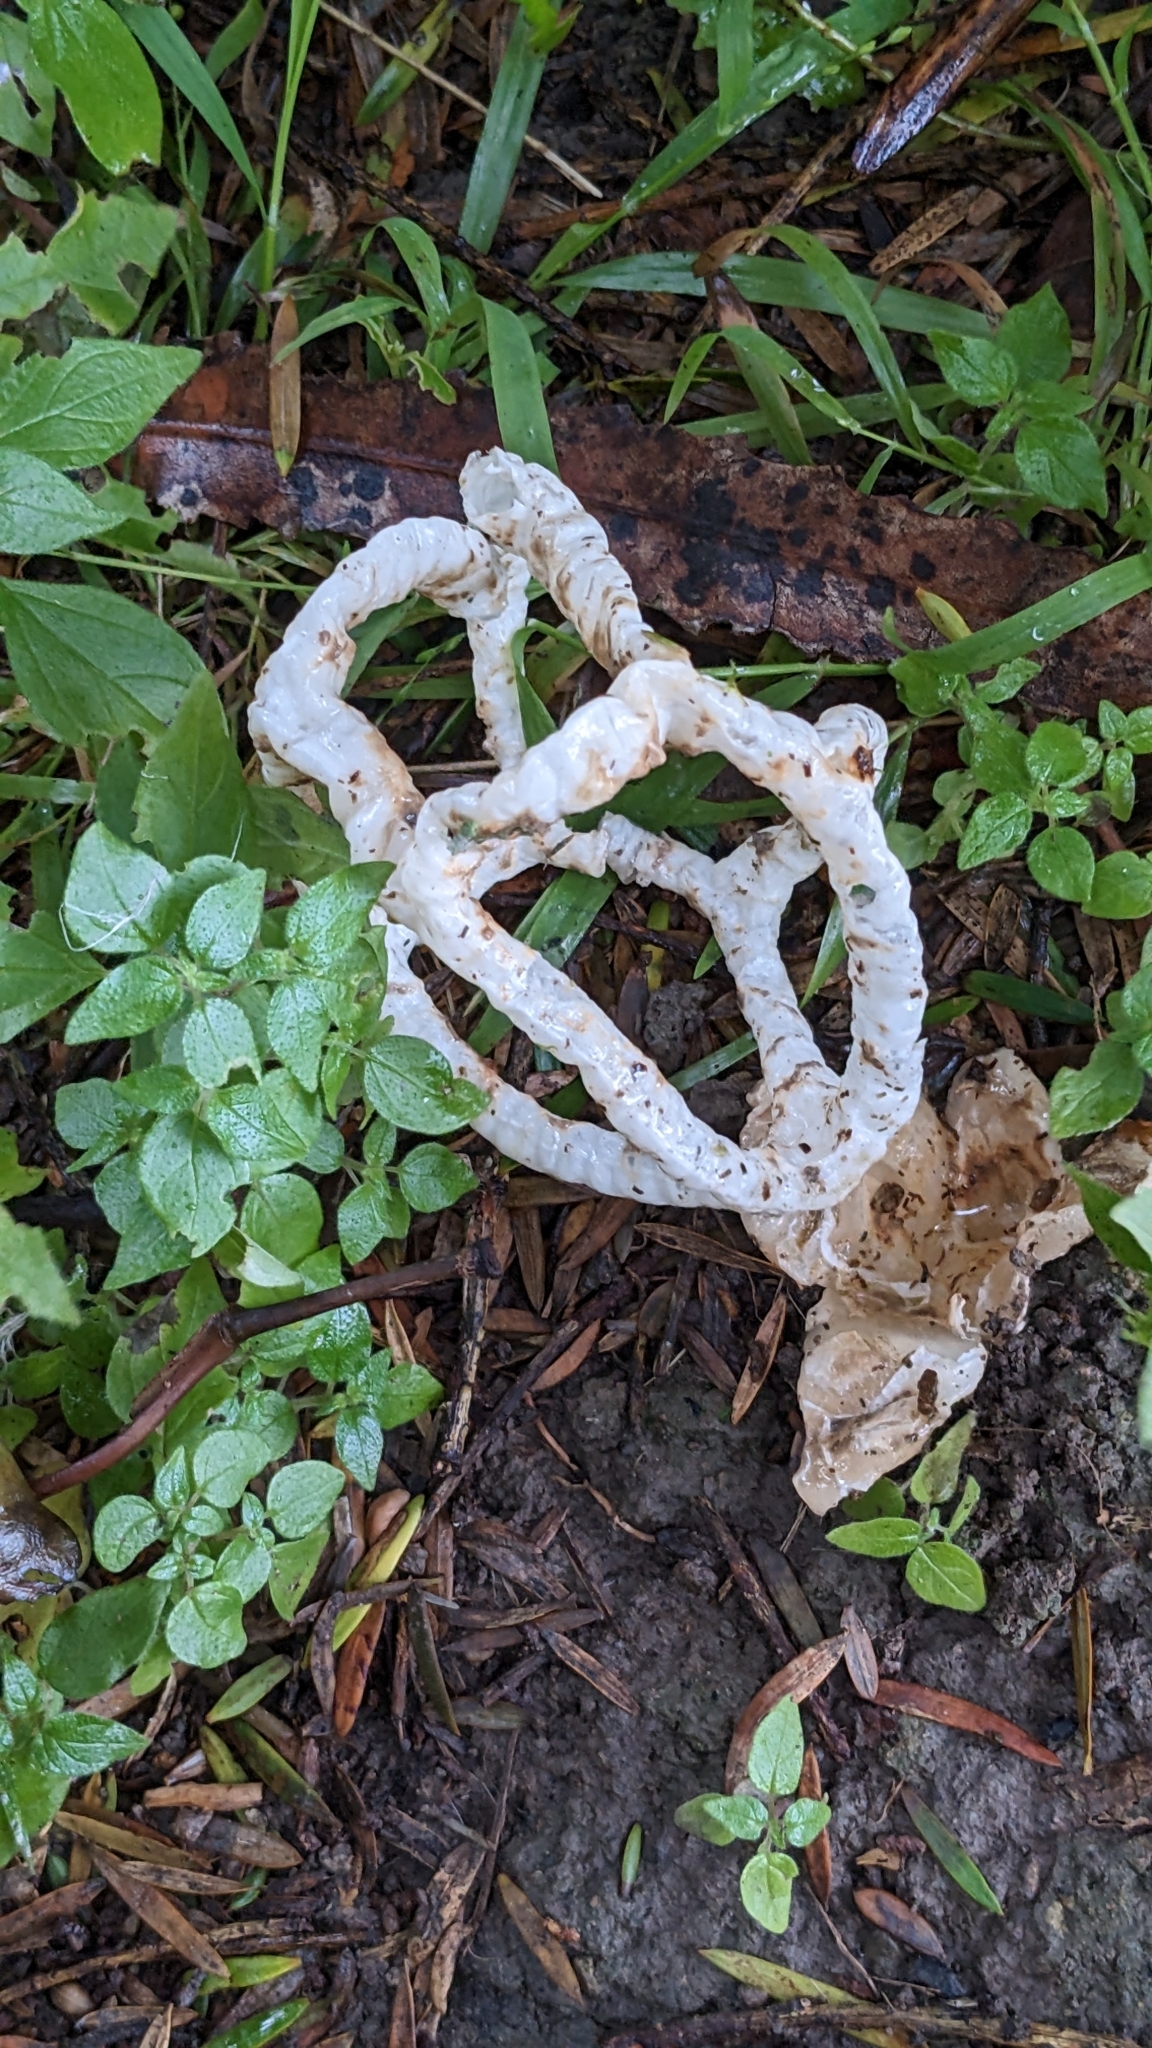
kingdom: Fungi
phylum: Basidiomycota
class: Agaricomycetes
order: Phallales
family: Phallaceae
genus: Ileodictyon
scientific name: Ileodictyon cibarium
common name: Basket fungus
